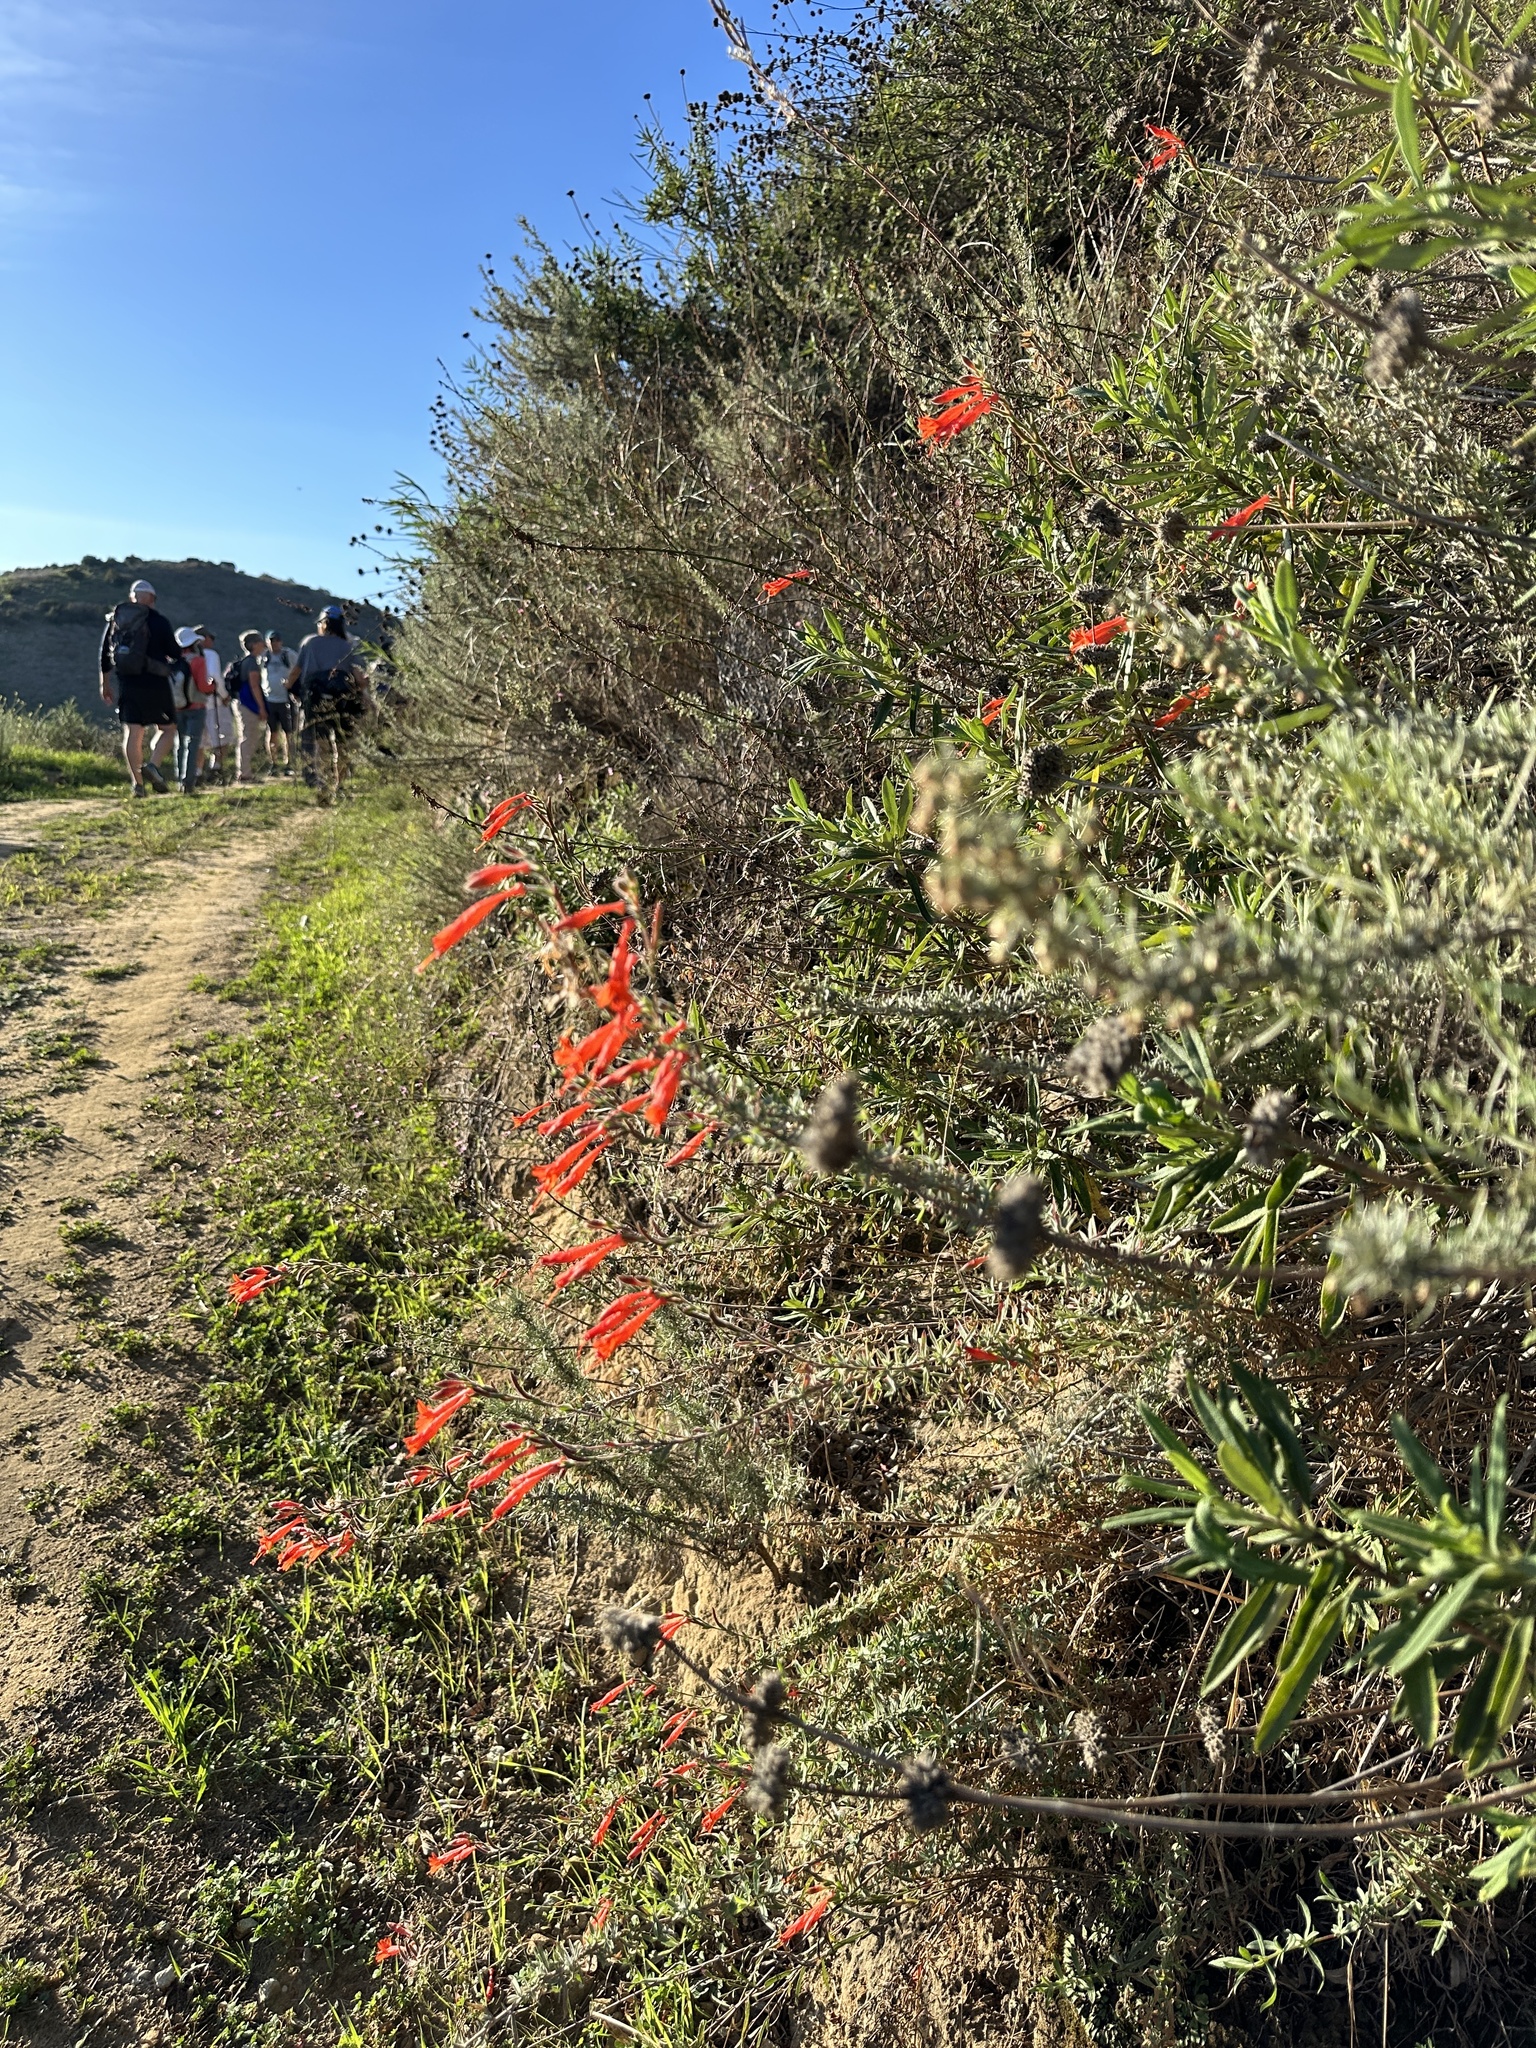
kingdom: Plantae
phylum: Tracheophyta
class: Magnoliopsida
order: Myrtales
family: Onagraceae
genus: Epilobium
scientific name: Epilobium canum
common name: California-fuchsia
